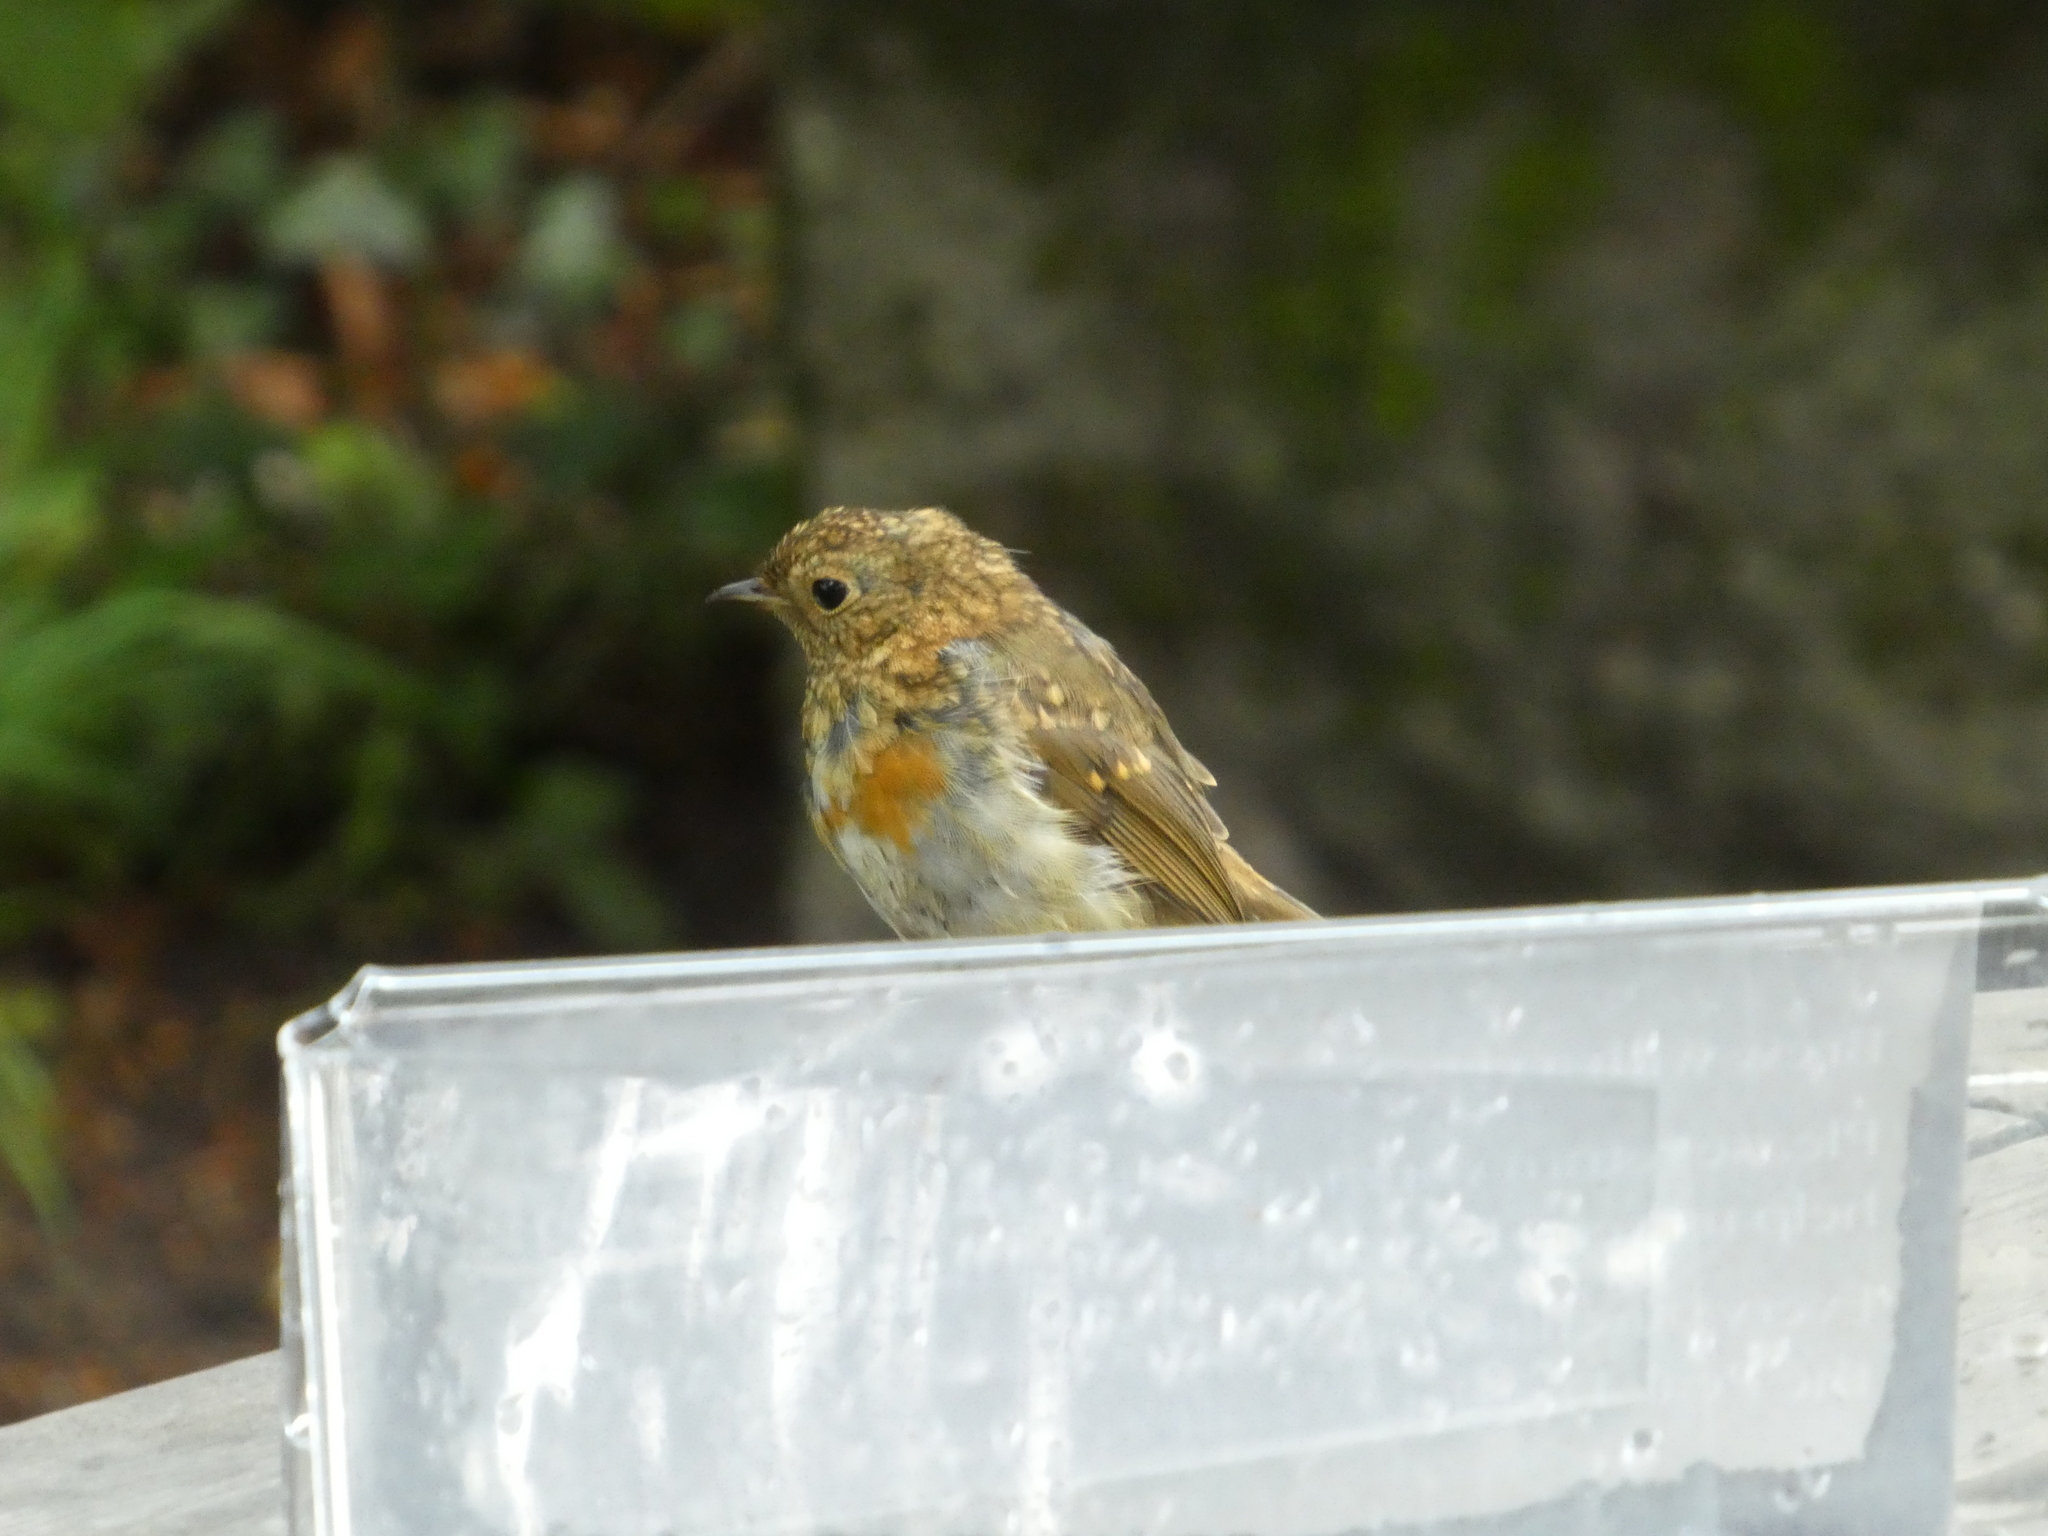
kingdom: Animalia
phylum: Chordata
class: Aves
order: Passeriformes
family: Muscicapidae
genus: Erithacus
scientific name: Erithacus rubecula
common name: European robin
